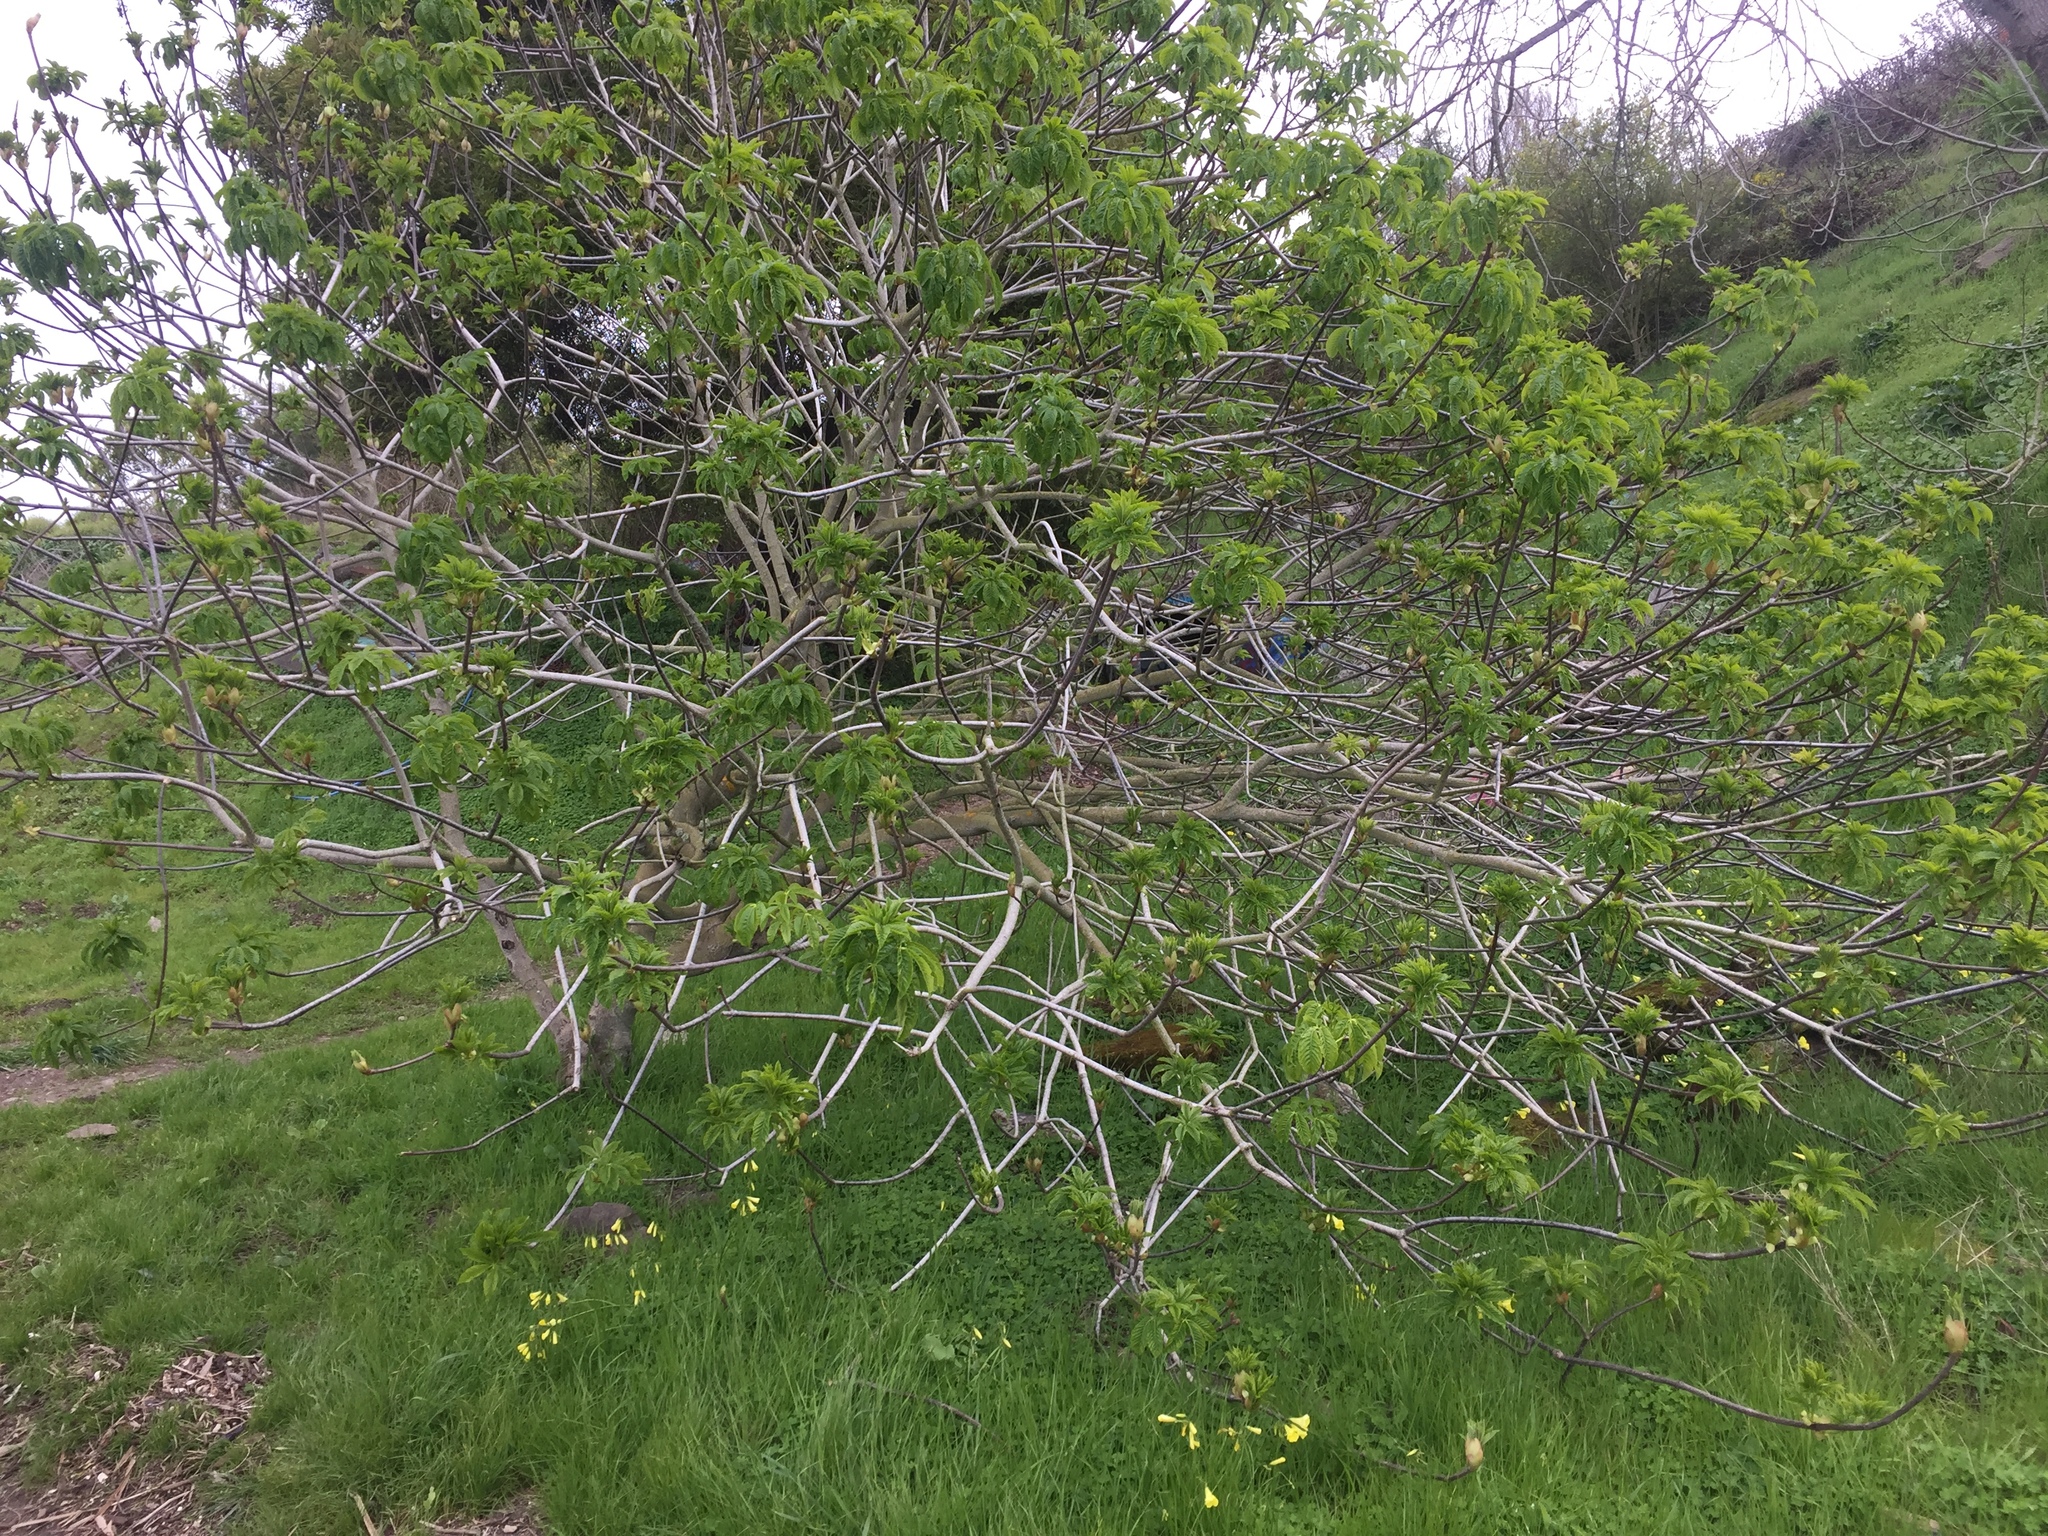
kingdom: Plantae
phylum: Tracheophyta
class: Magnoliopsida
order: Sapindales
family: Sapindaceae
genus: Aesculus
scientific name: Aesculus californica
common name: California buckeye
